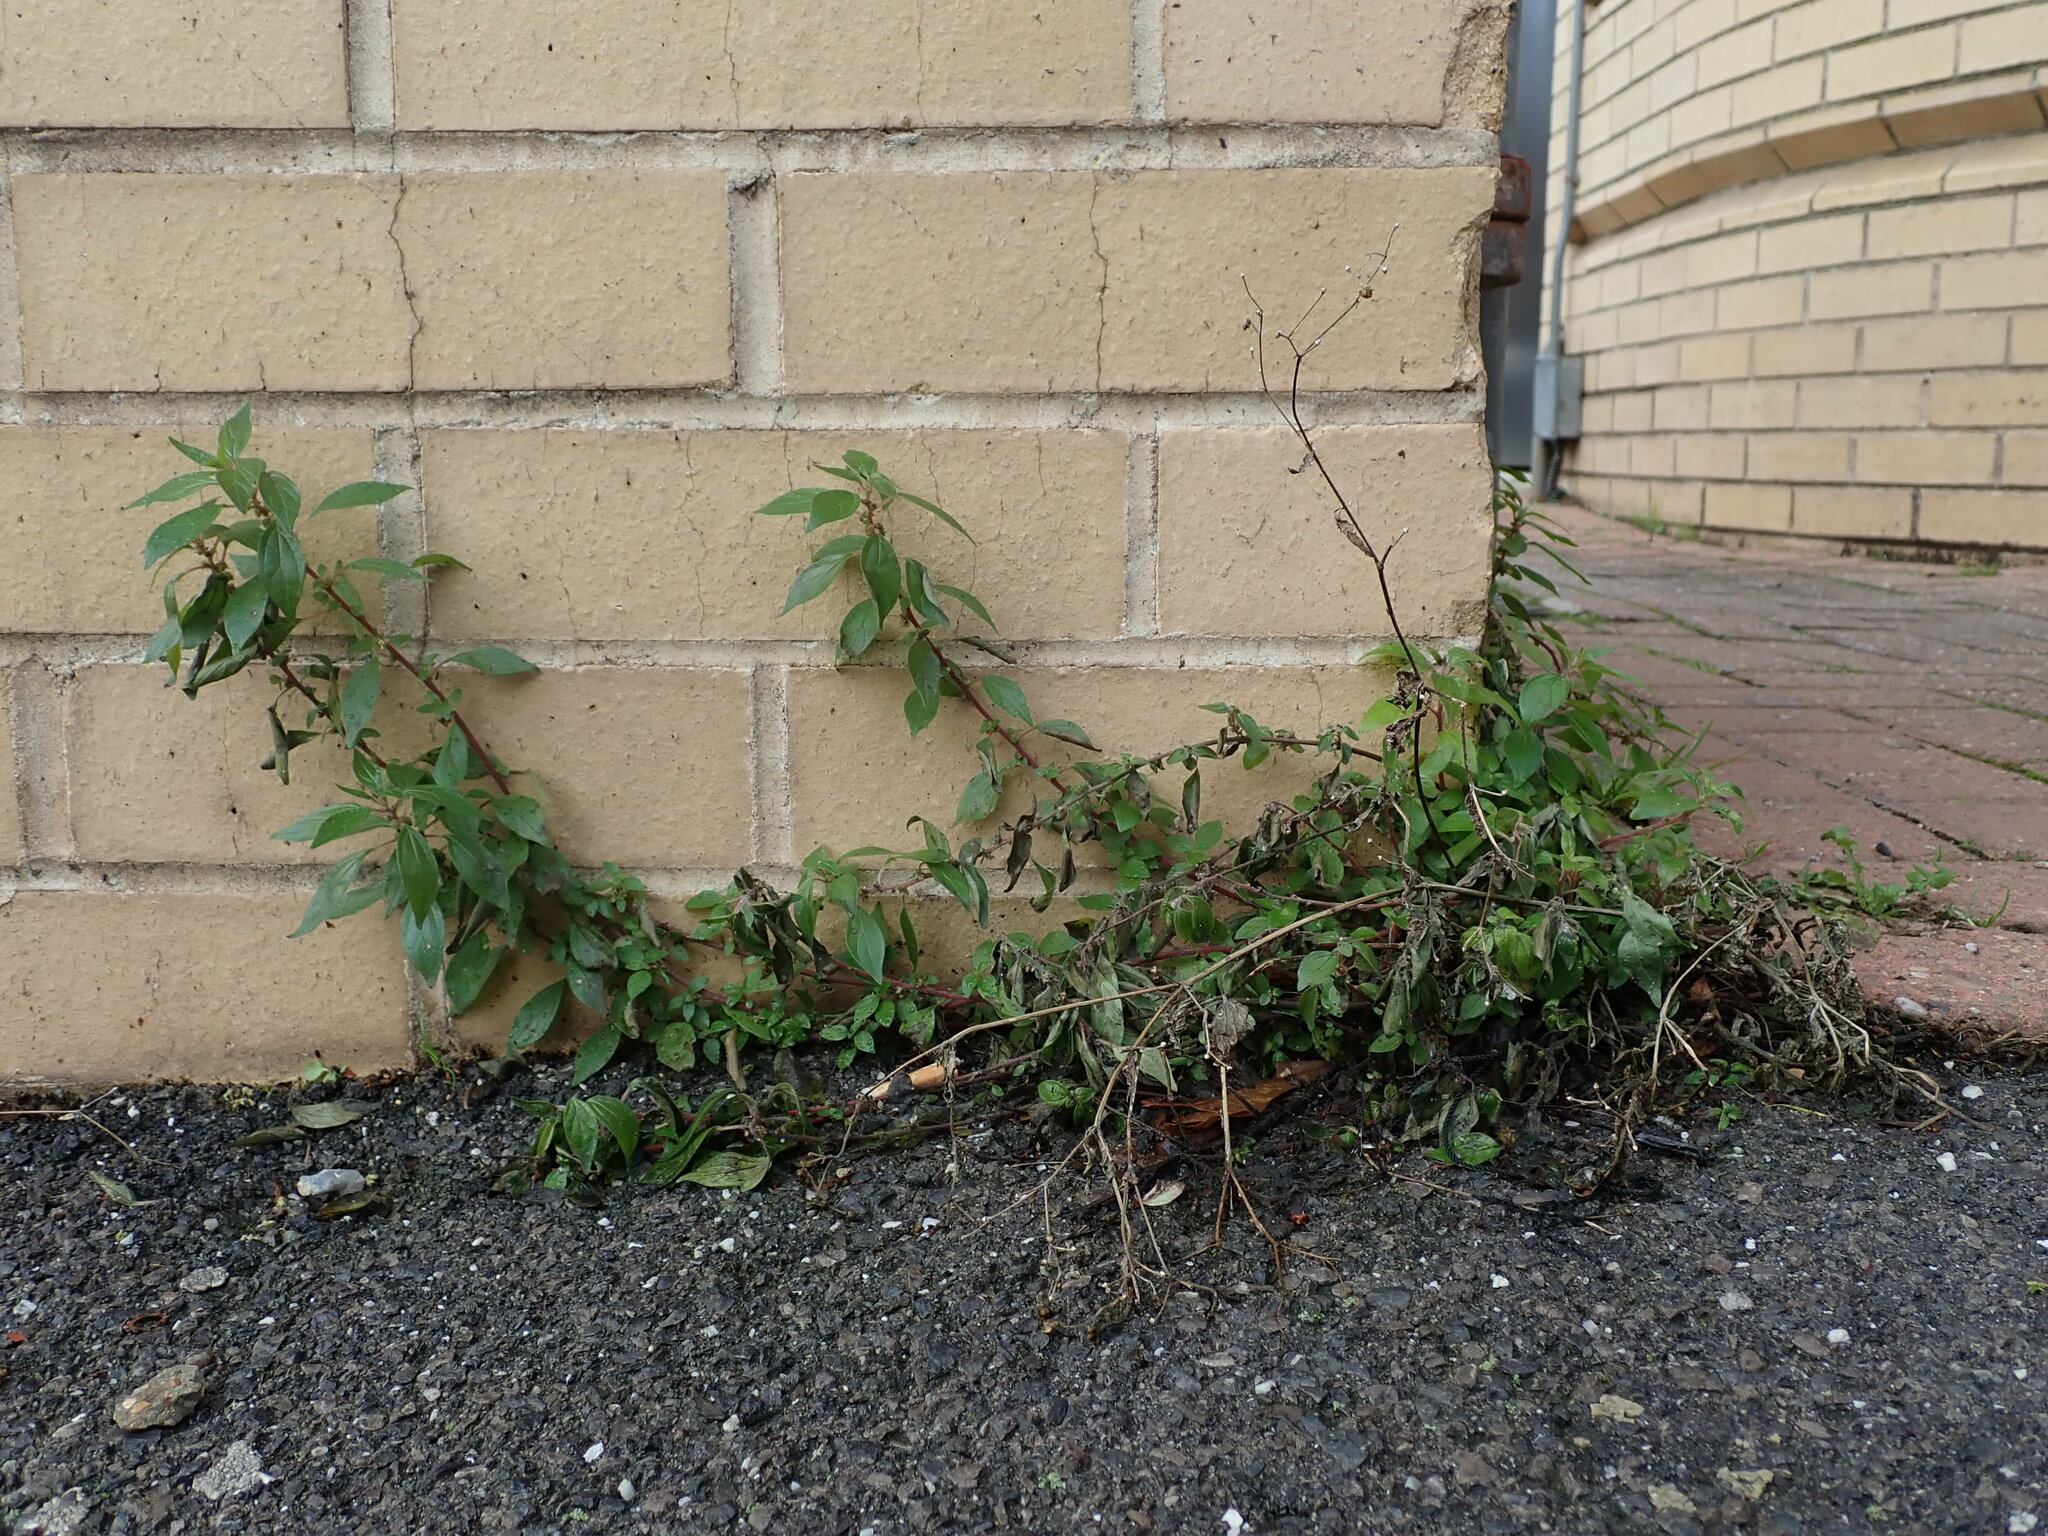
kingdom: Plantae
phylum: Tracheophyta
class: Magnoliopsida
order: Rosales
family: Urticaceae
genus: Parietaria
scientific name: Parietaria judaica
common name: Pellitory-of-the-wall
